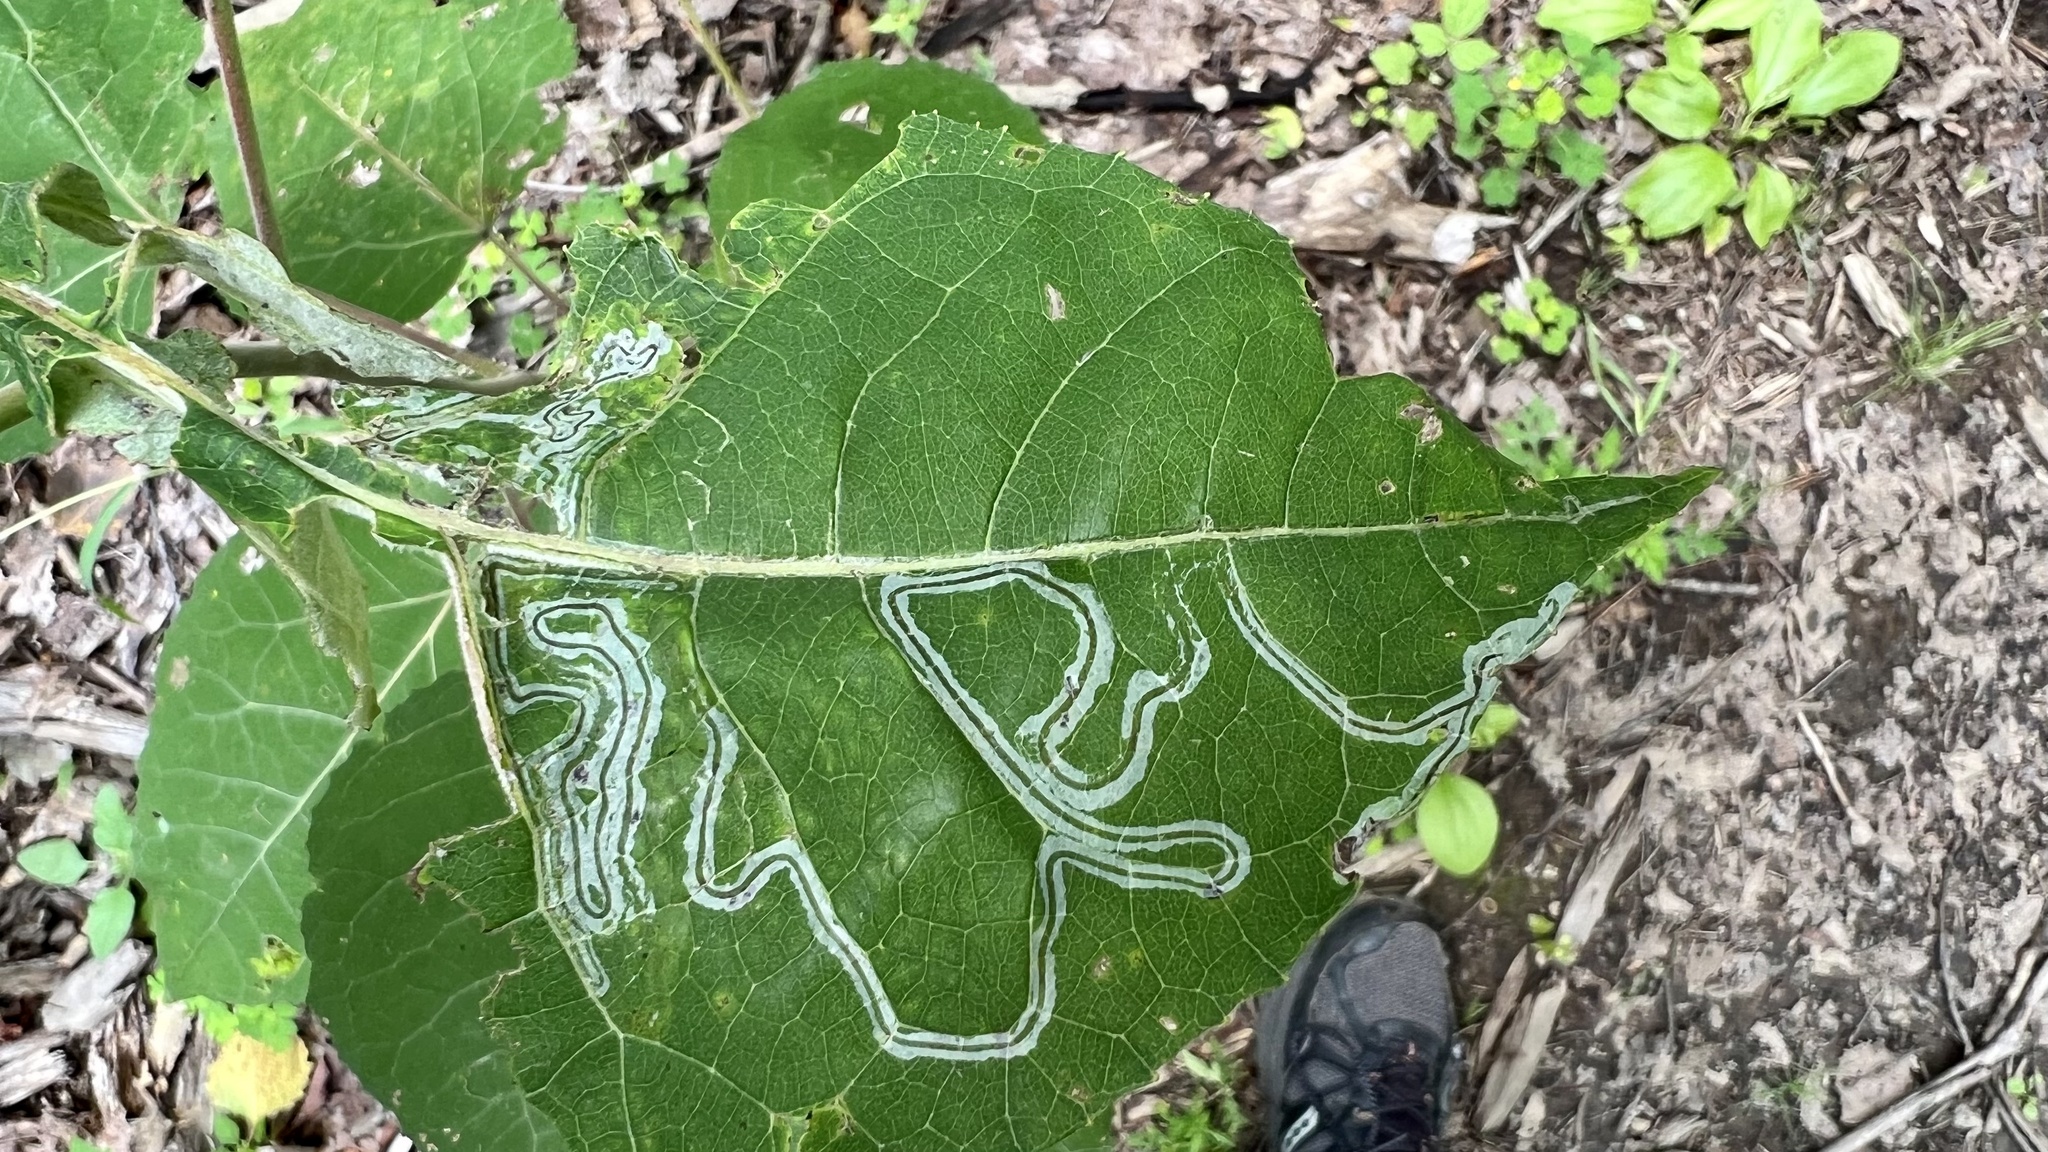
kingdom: Animalia
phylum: Arthropoda
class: Insecta
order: Lepidoptera
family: Gracillariidae
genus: Phyllocnistis
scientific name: Phyllocnistis populiella
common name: Aspen serpentine leafminer moth
